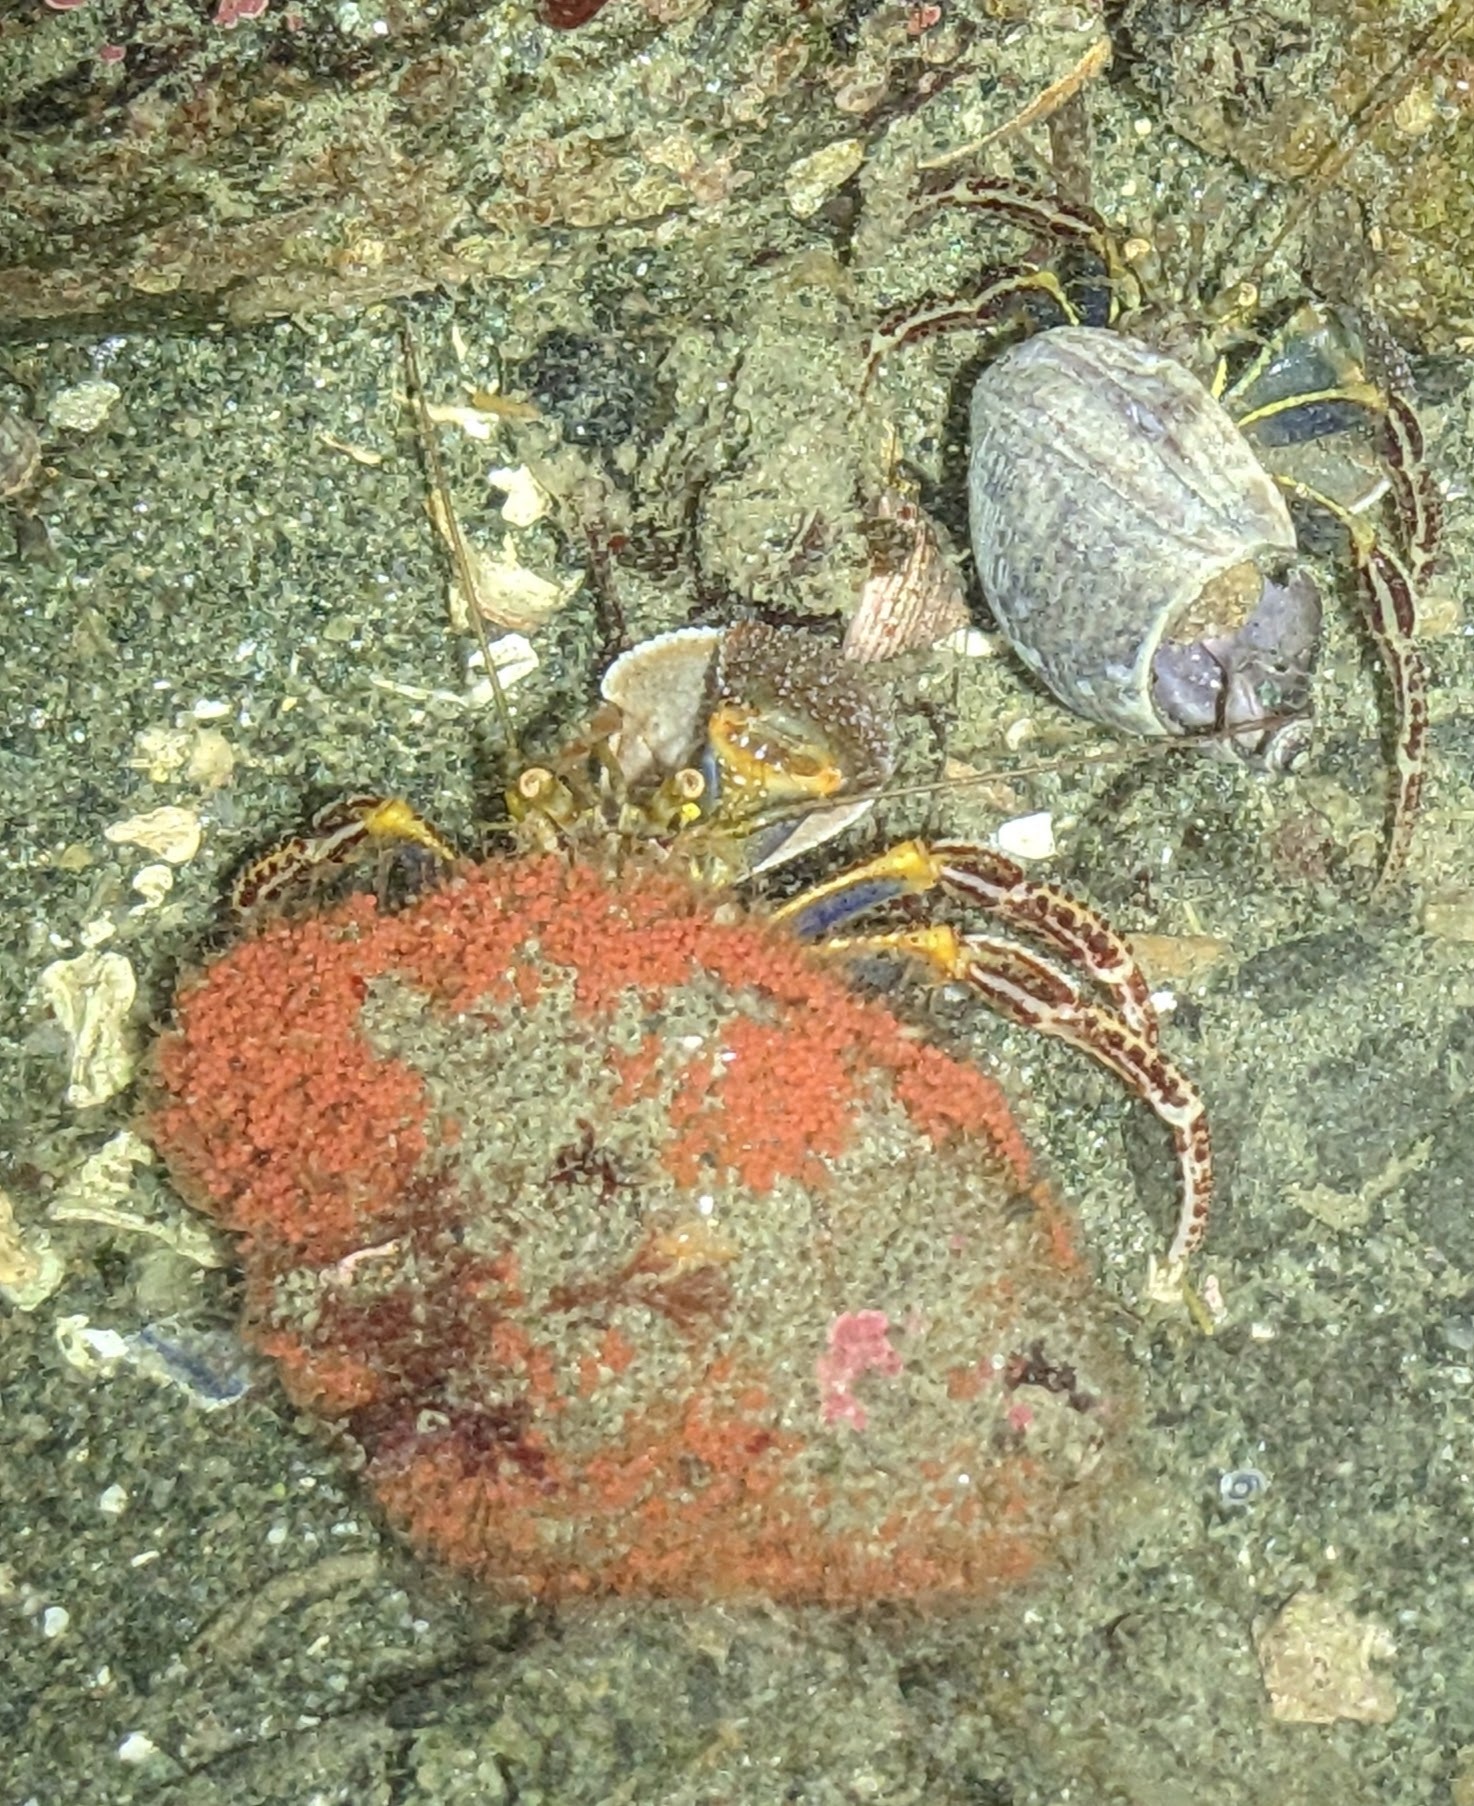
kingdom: Animalia
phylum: Arthropoda
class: Malacostraca
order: Decapoda
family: Paguridae
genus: Elassochirus
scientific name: Elassochirus tenuimanus
